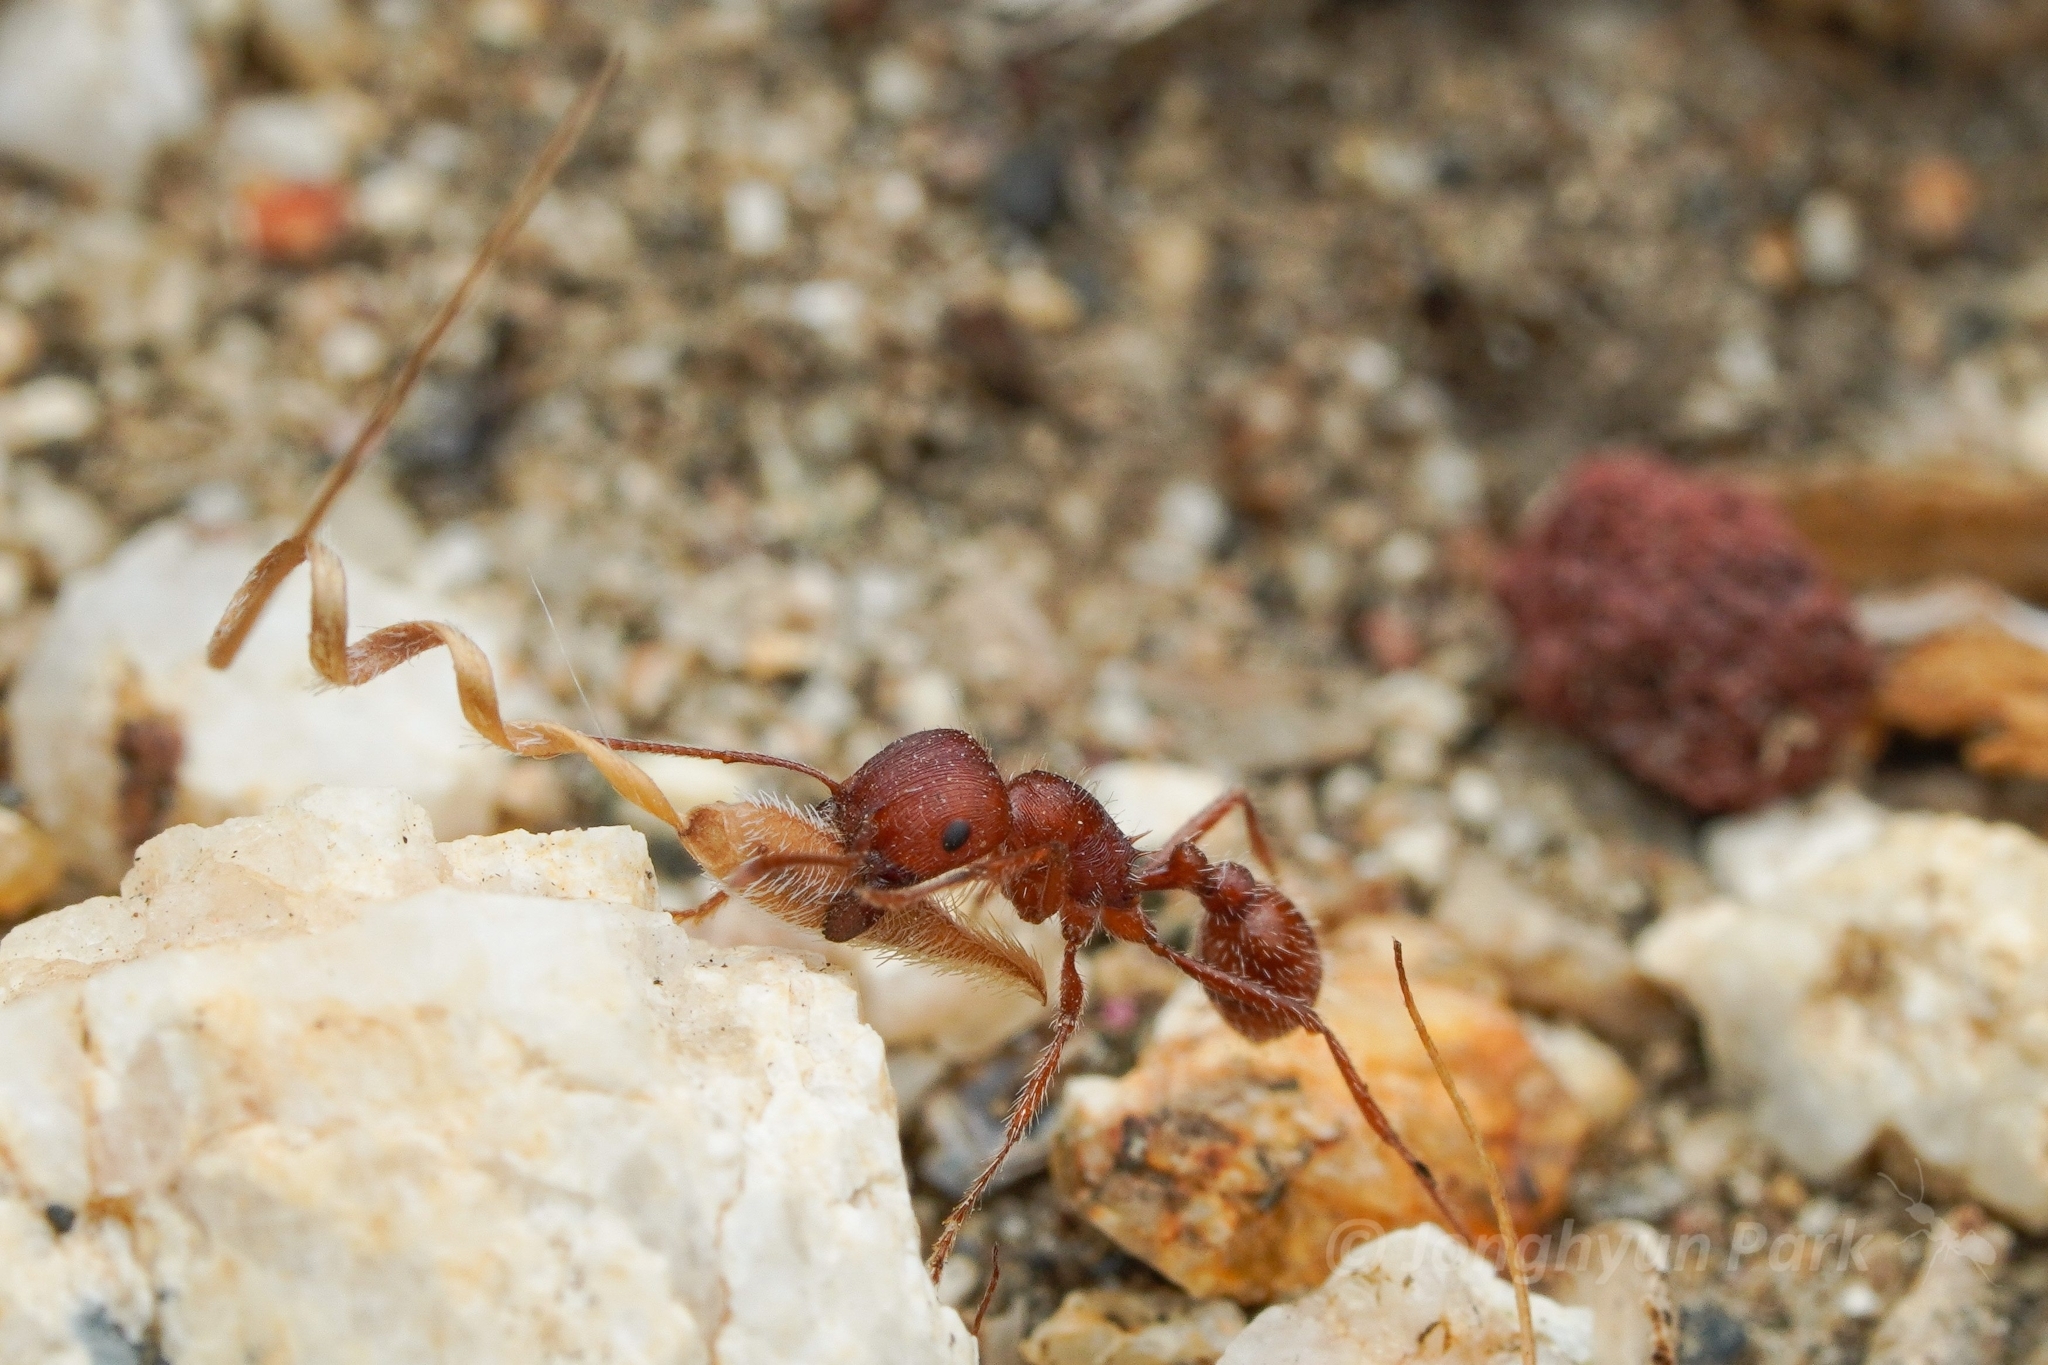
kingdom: Animalia
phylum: Arthropoda
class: Insecta
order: Hymenoptera
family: Formicidae
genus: Pogonomyrmex
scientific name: Pogonomyrmex subnitidus
